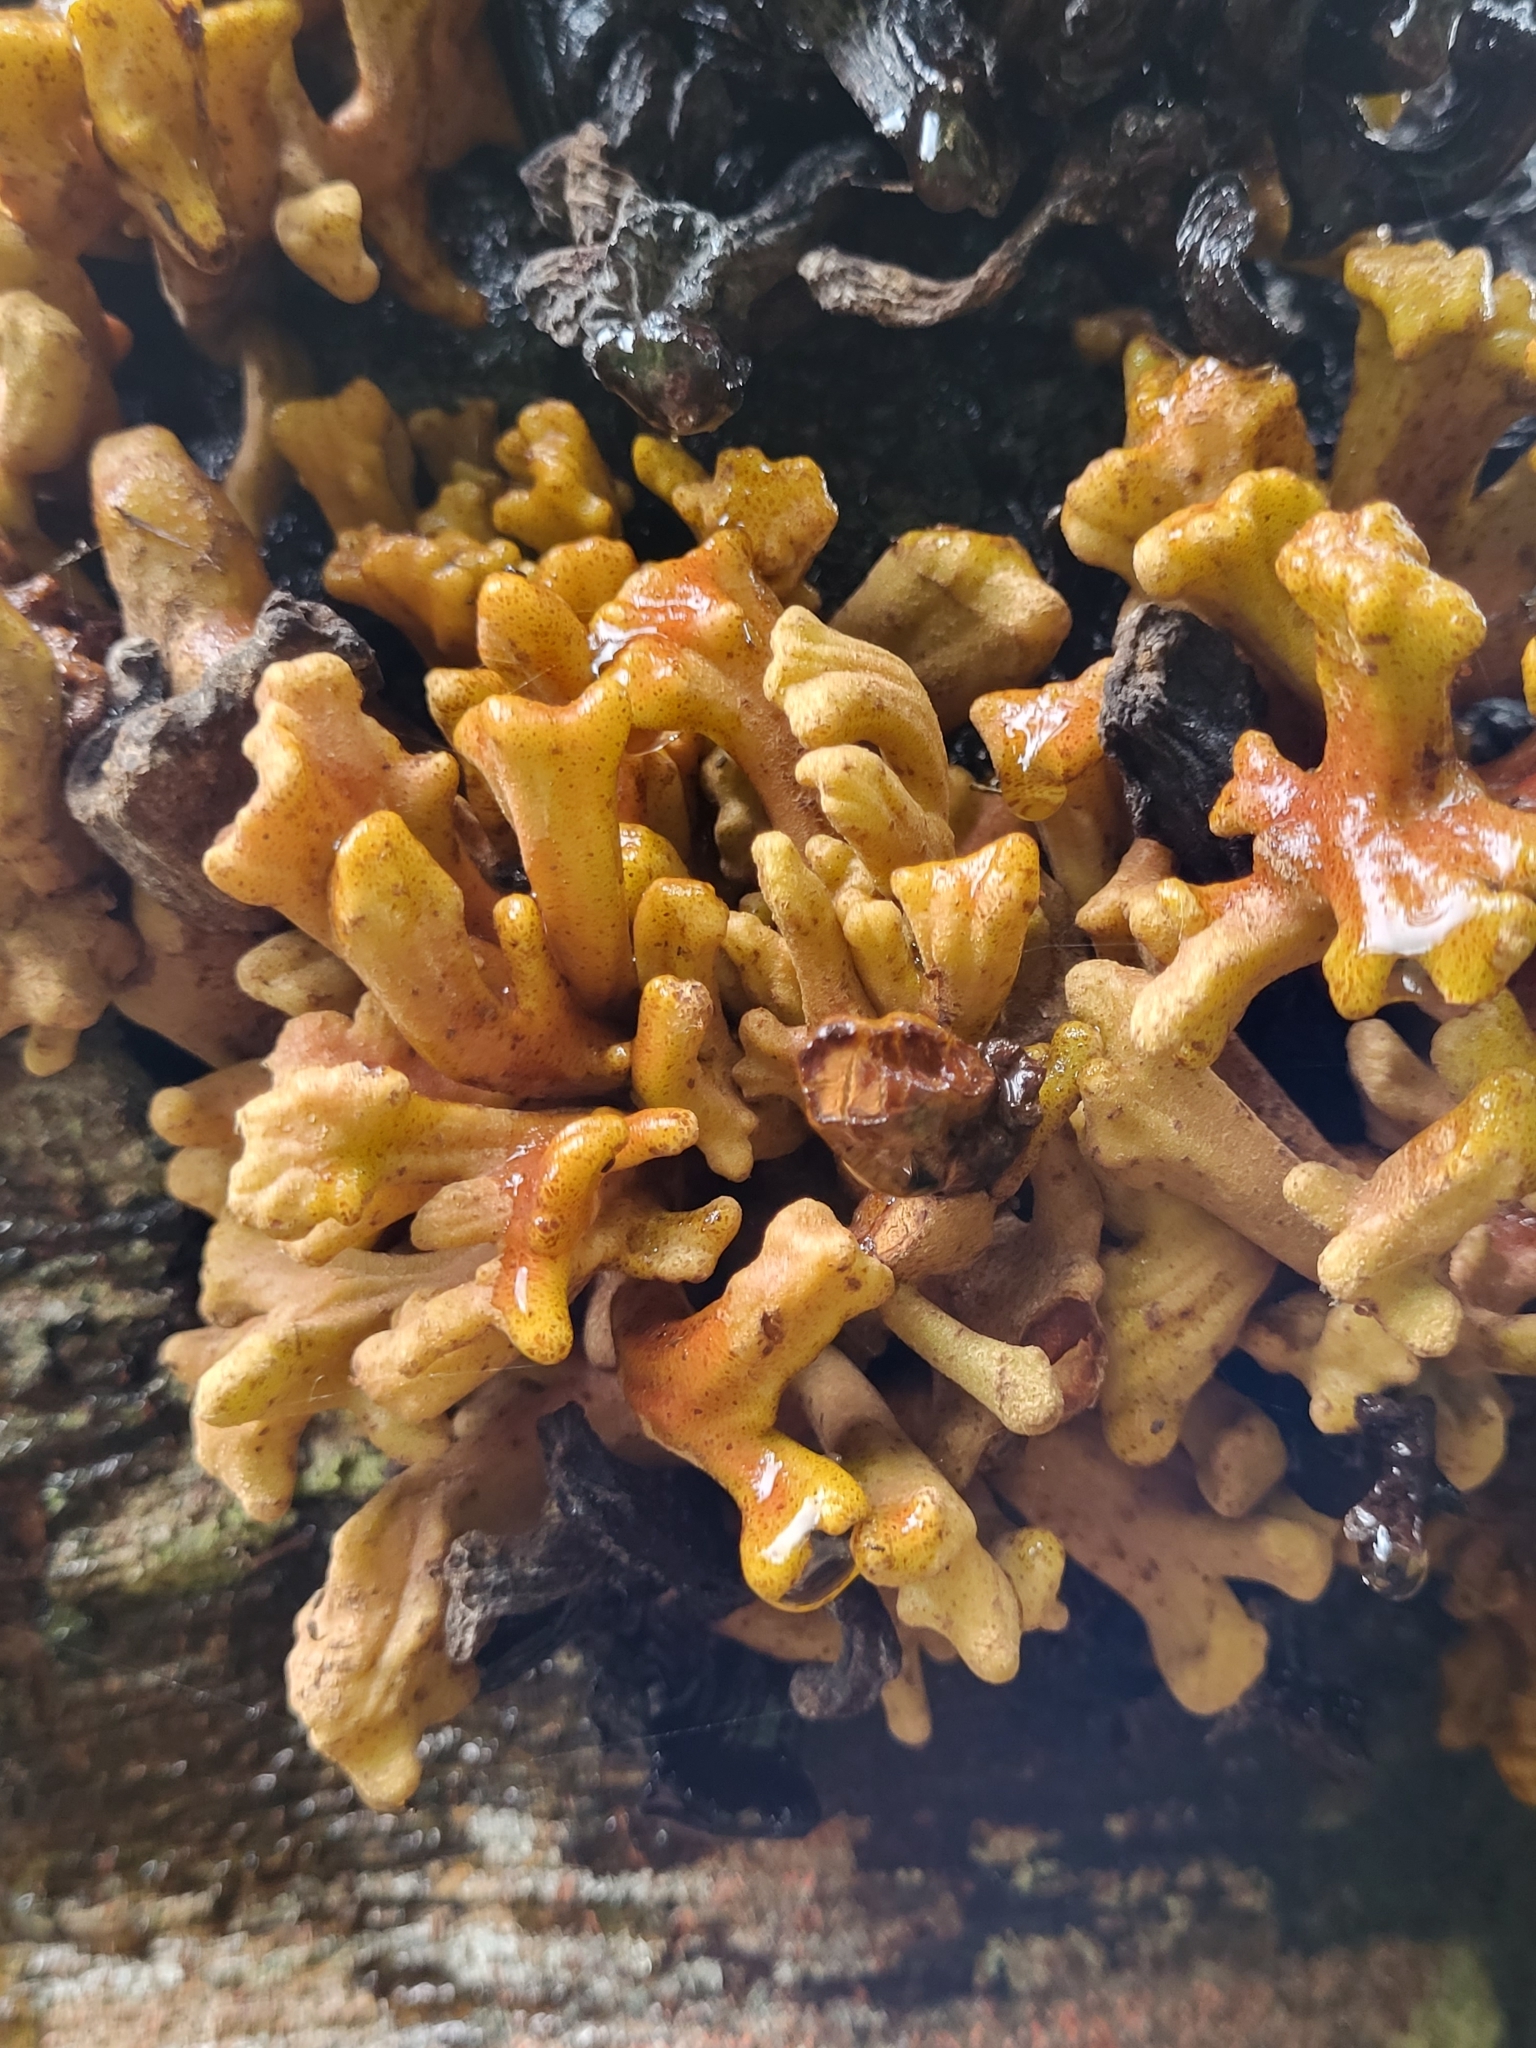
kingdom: Fungi
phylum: Basidiomycota
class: Exobasidiomycetes
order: Exobasidiales
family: Laurobasidiaceae
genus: Laurobasidium
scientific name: Laurobasidium lauri
